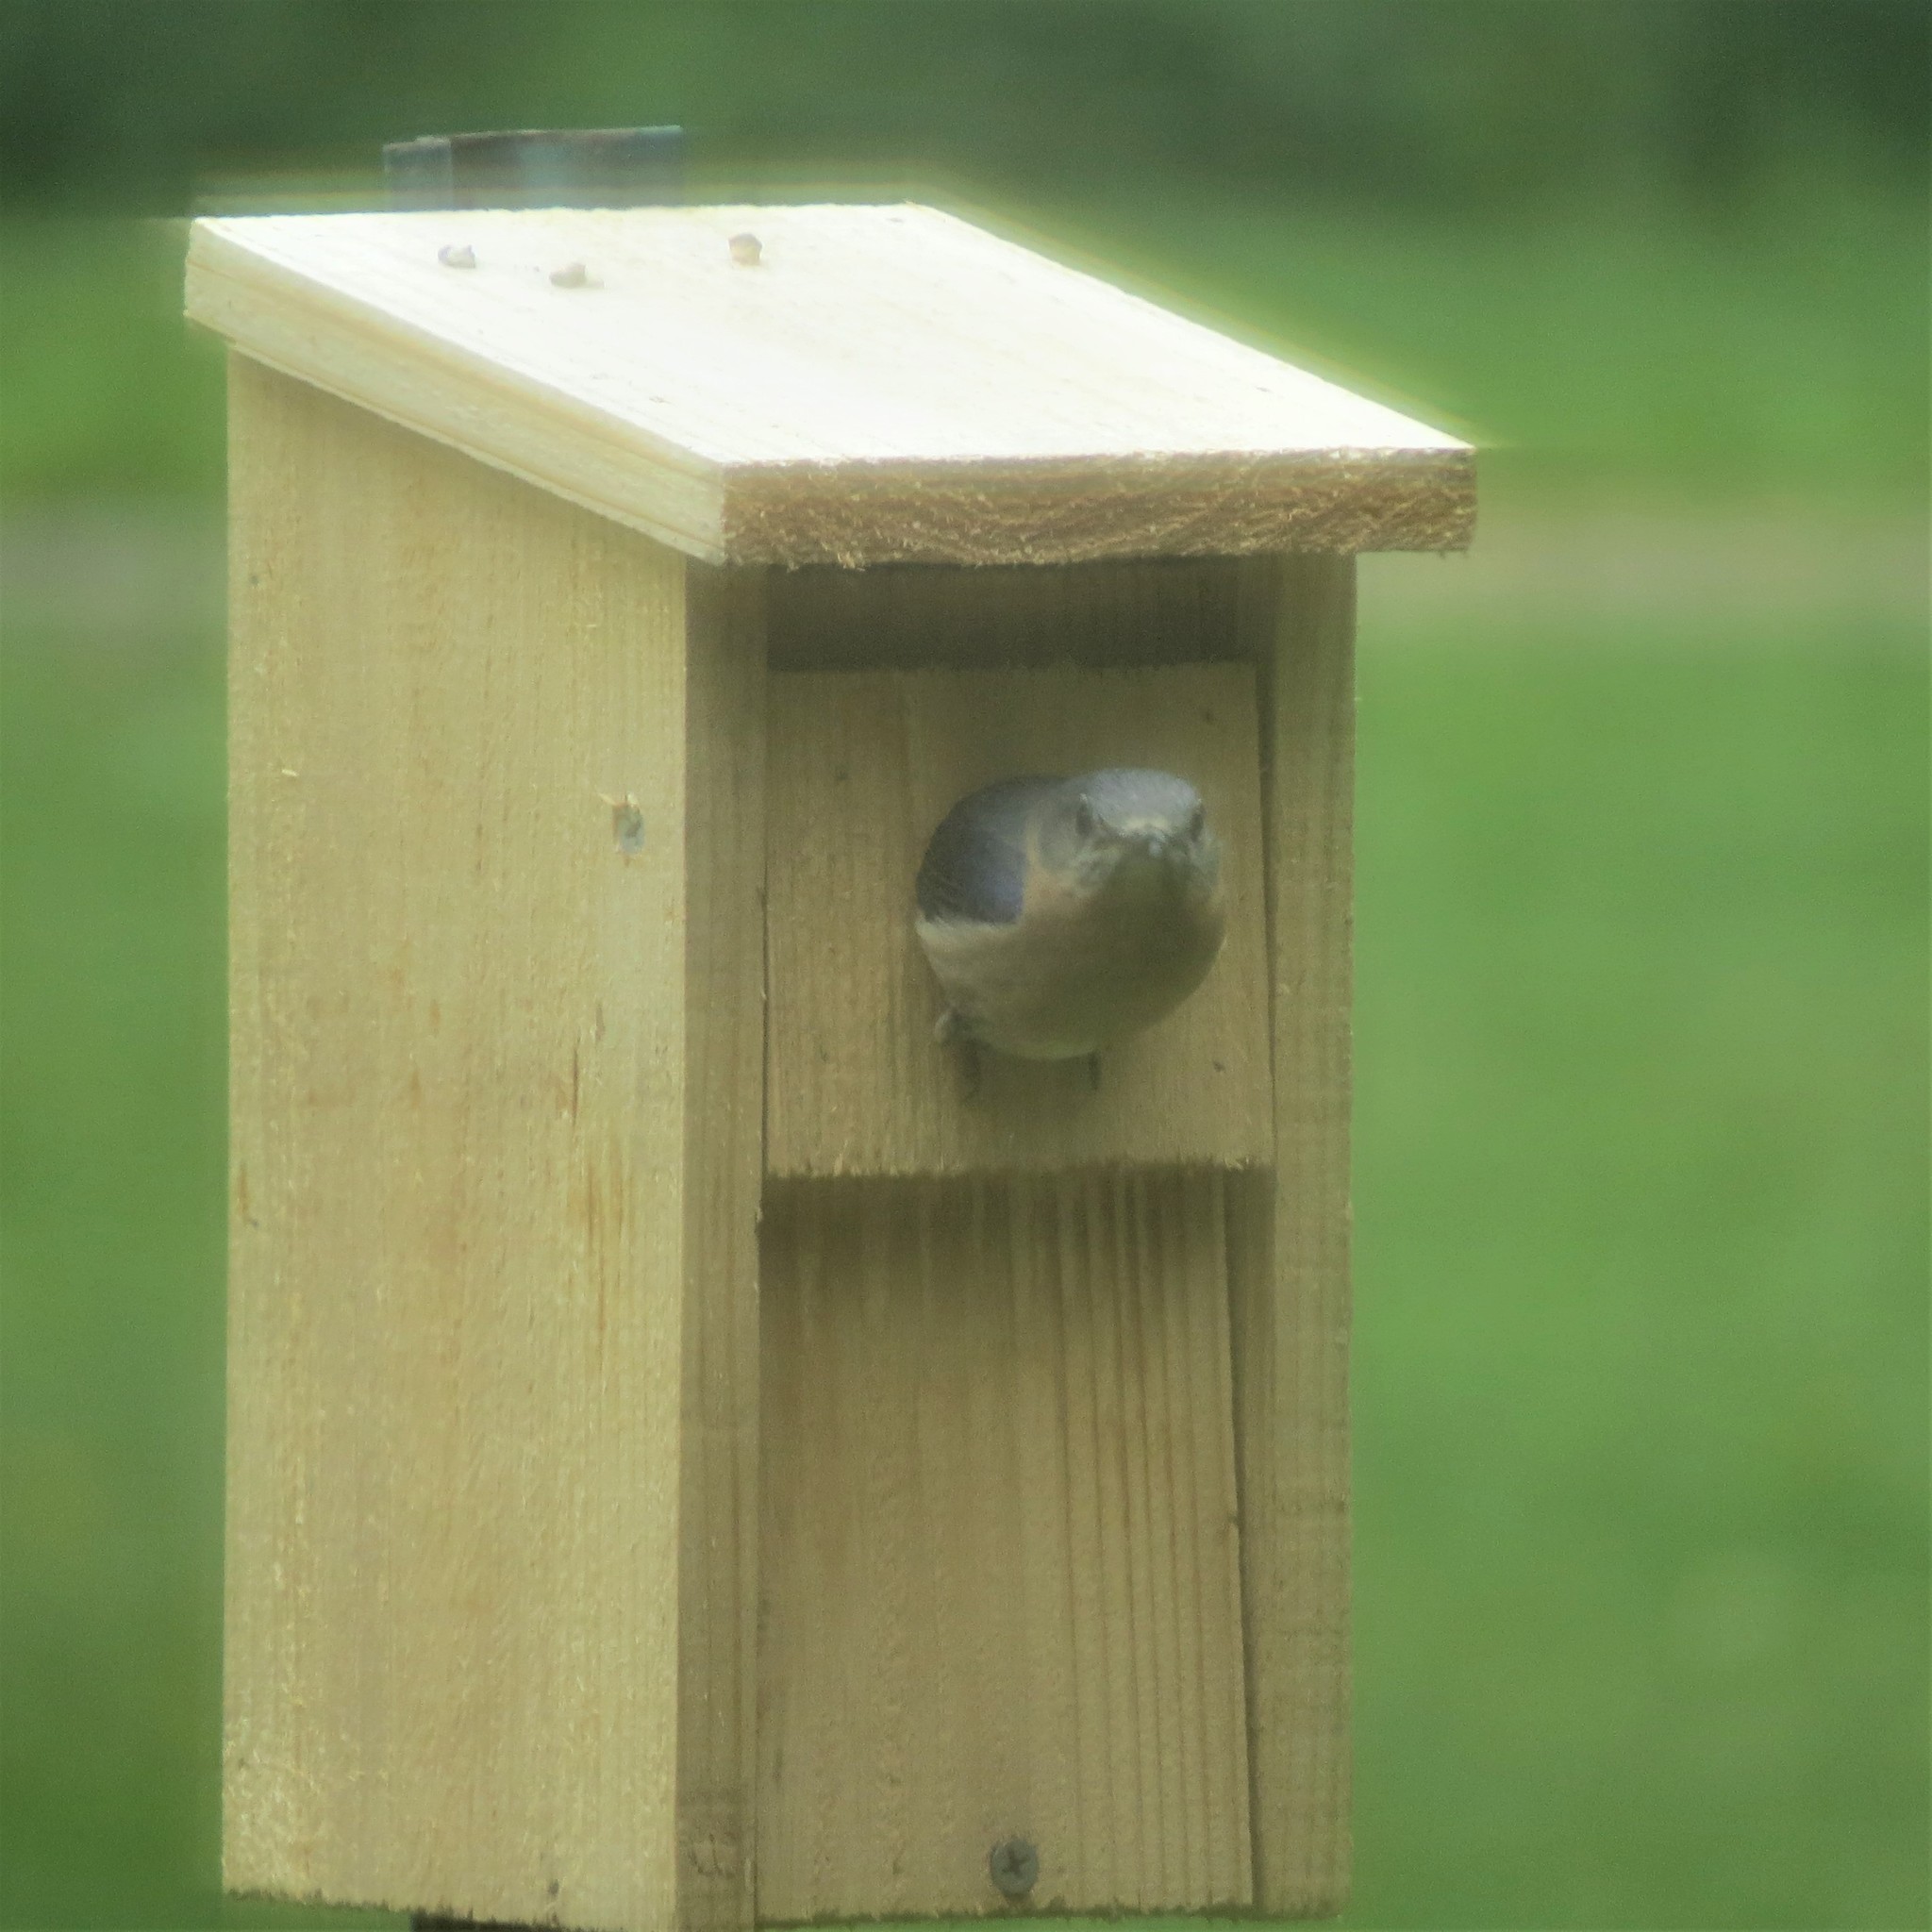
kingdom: Animalia
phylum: Chordata
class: Aves
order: Passeriformes
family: Turdidae
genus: Sialia
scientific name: Sialia sialis
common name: Eastern bluebird
